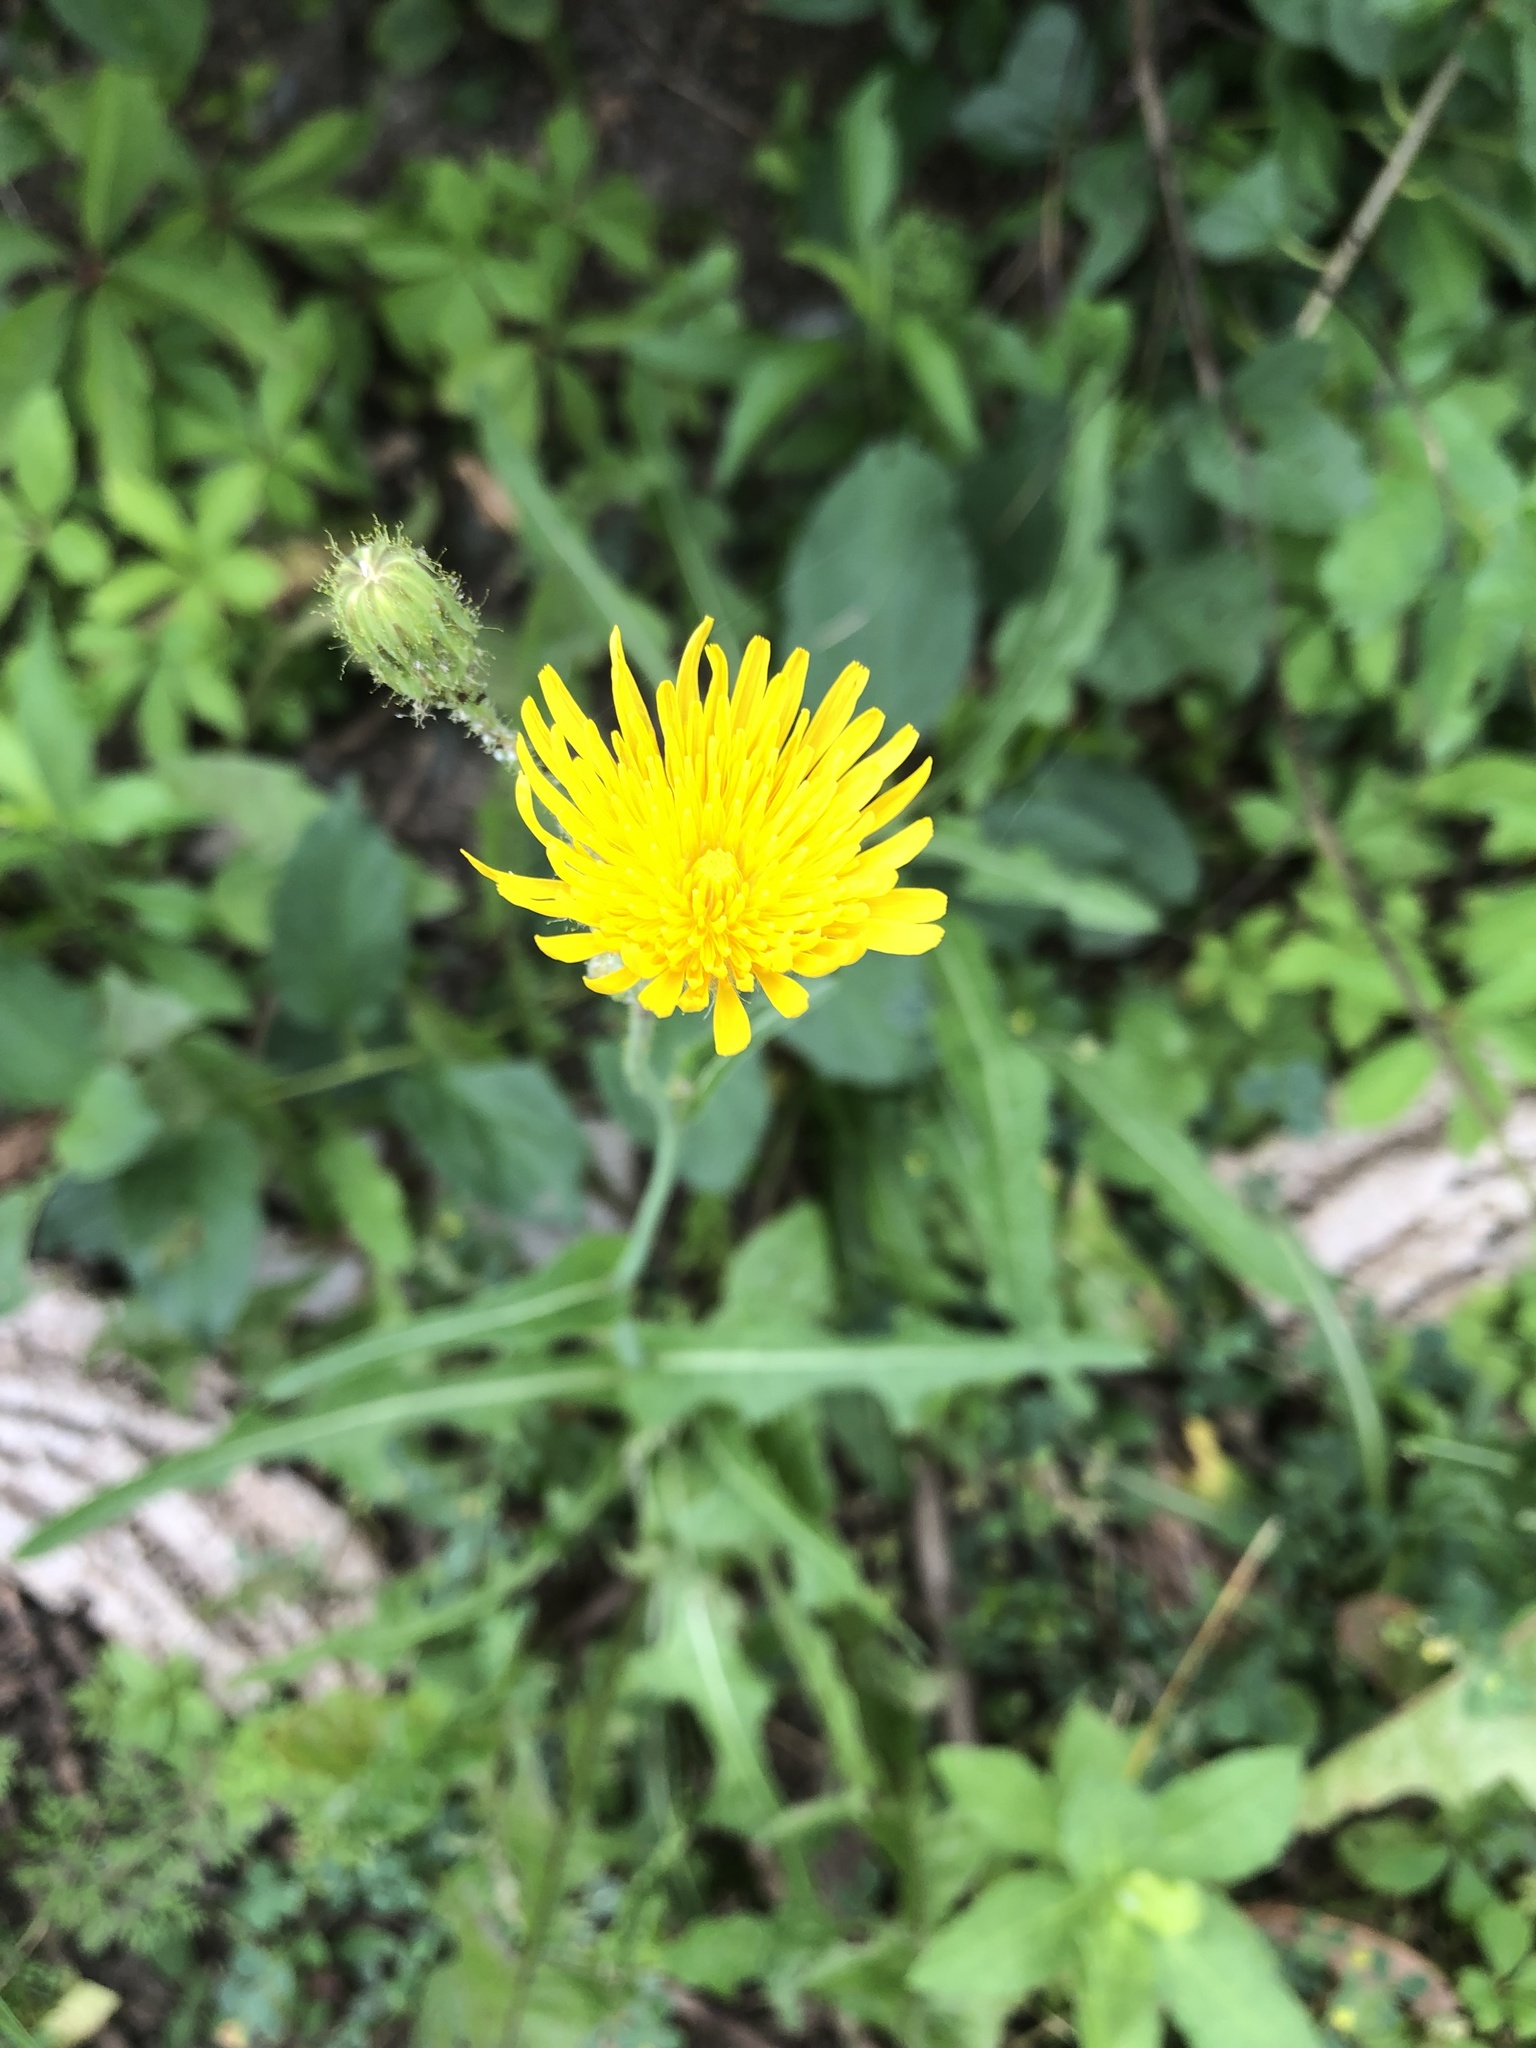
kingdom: Plantae
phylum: Tracheophyta
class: Magnoliopsida
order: Asterales
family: Asteraceae
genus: Sonchus
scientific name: Sonchus arvensis
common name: Perennial sow-thistle
